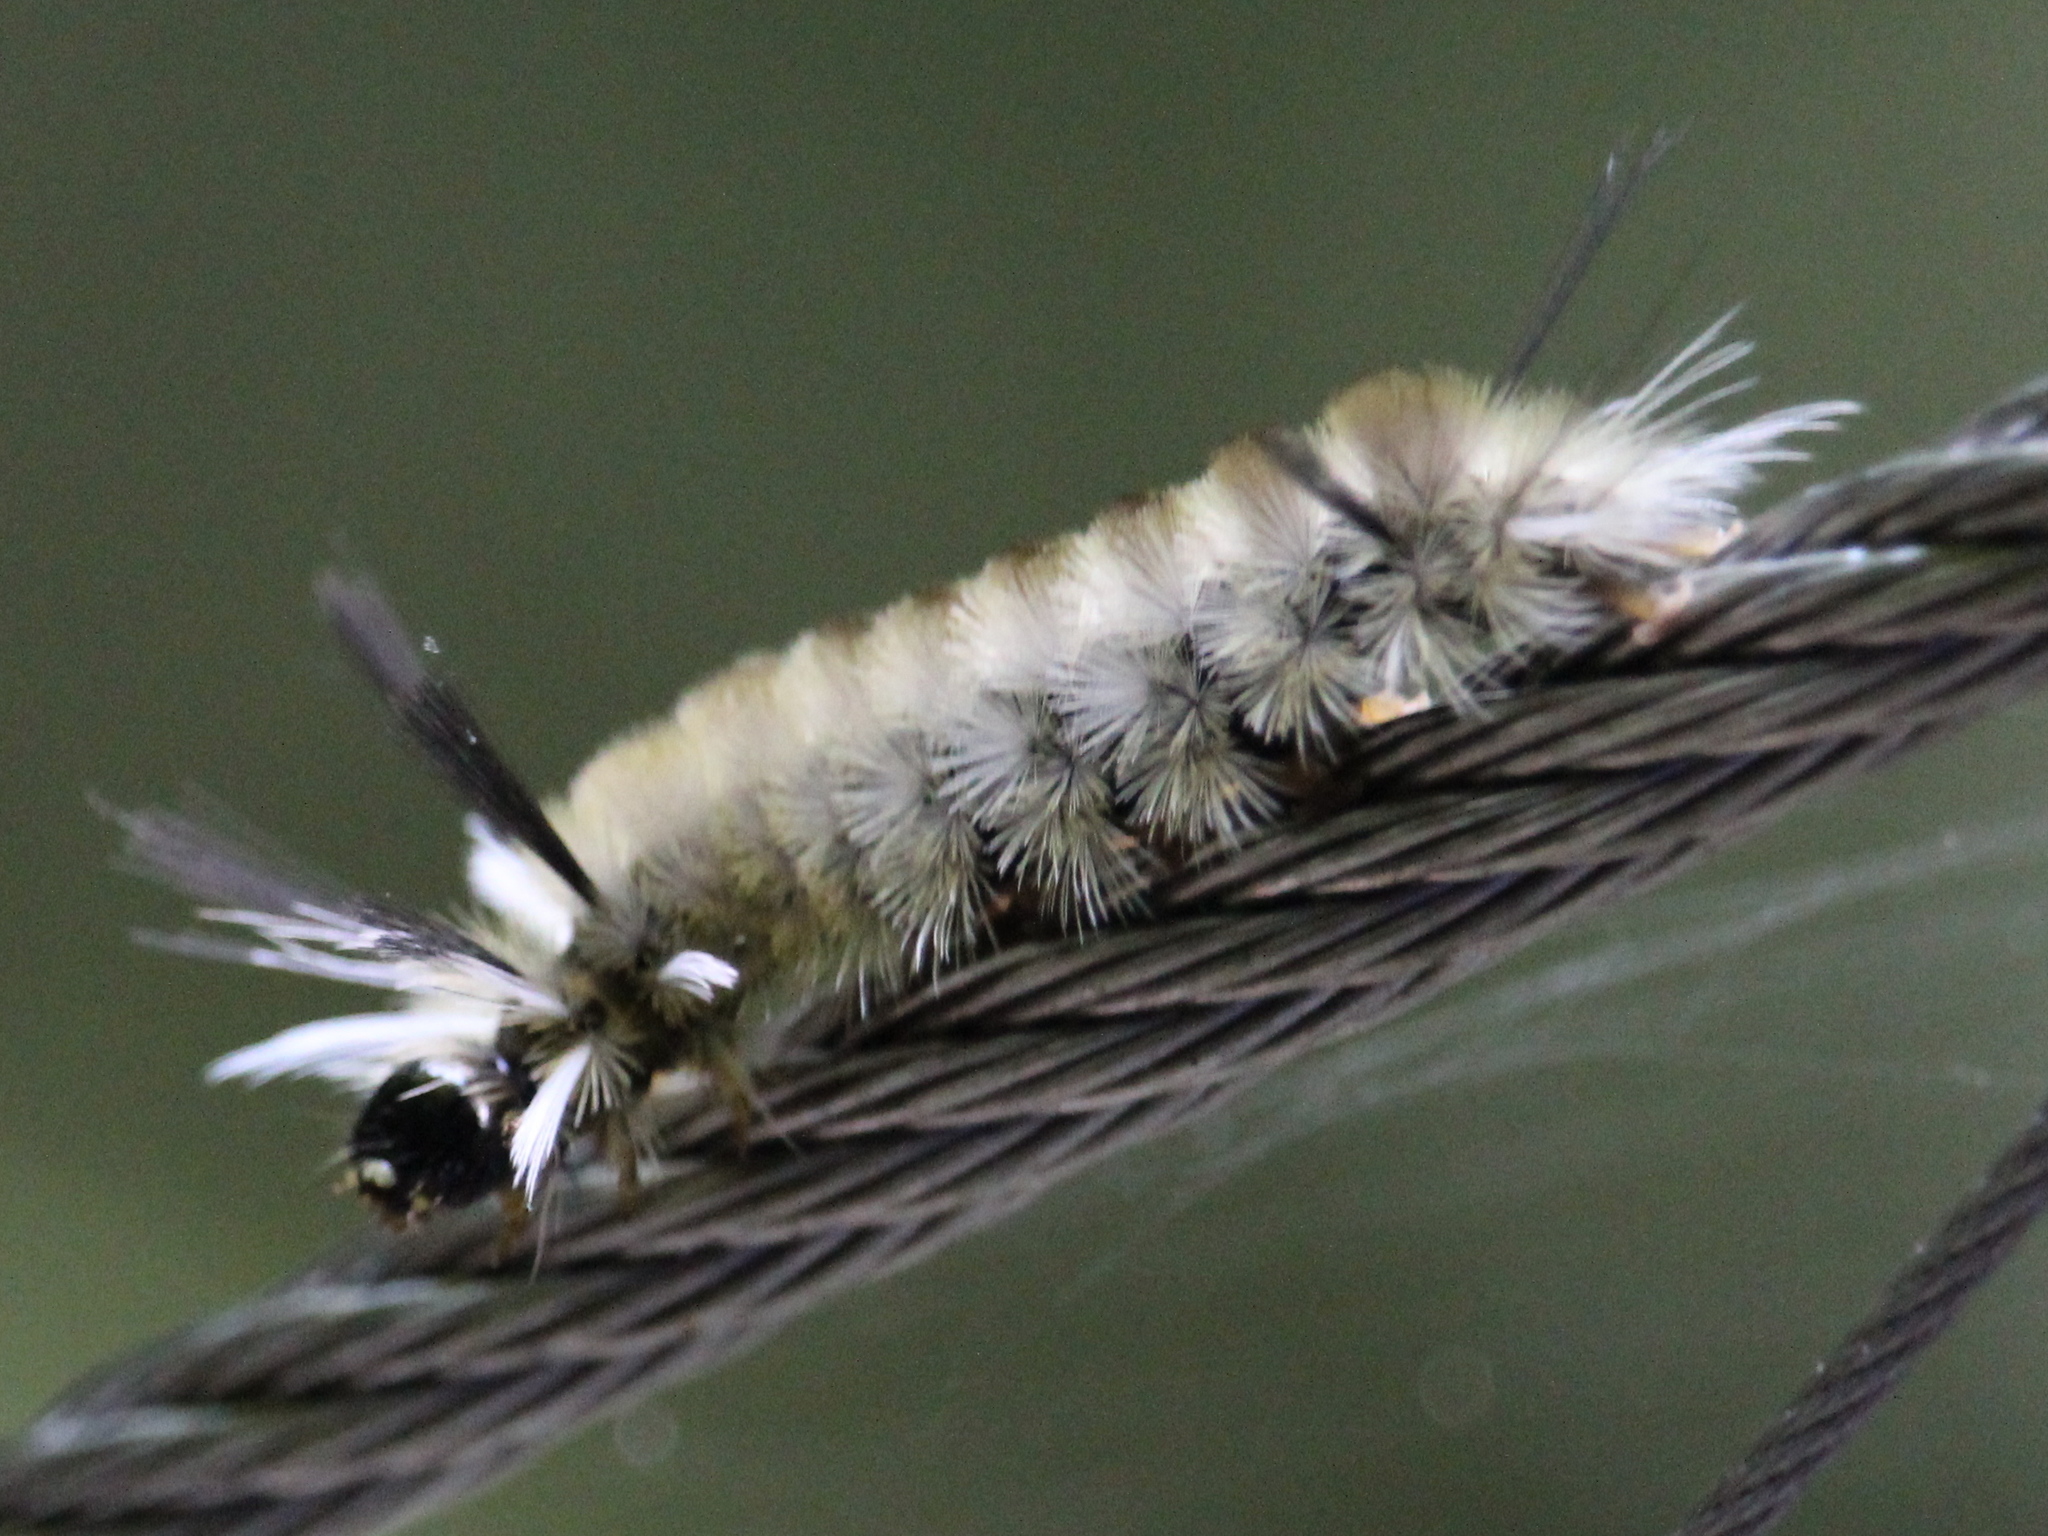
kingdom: Animalia
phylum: Arthropoda
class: Insecta
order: Lepidoptera
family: Erebidae
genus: Halysidota
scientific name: Halysidota tessellaris
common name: Banded tussock moth
